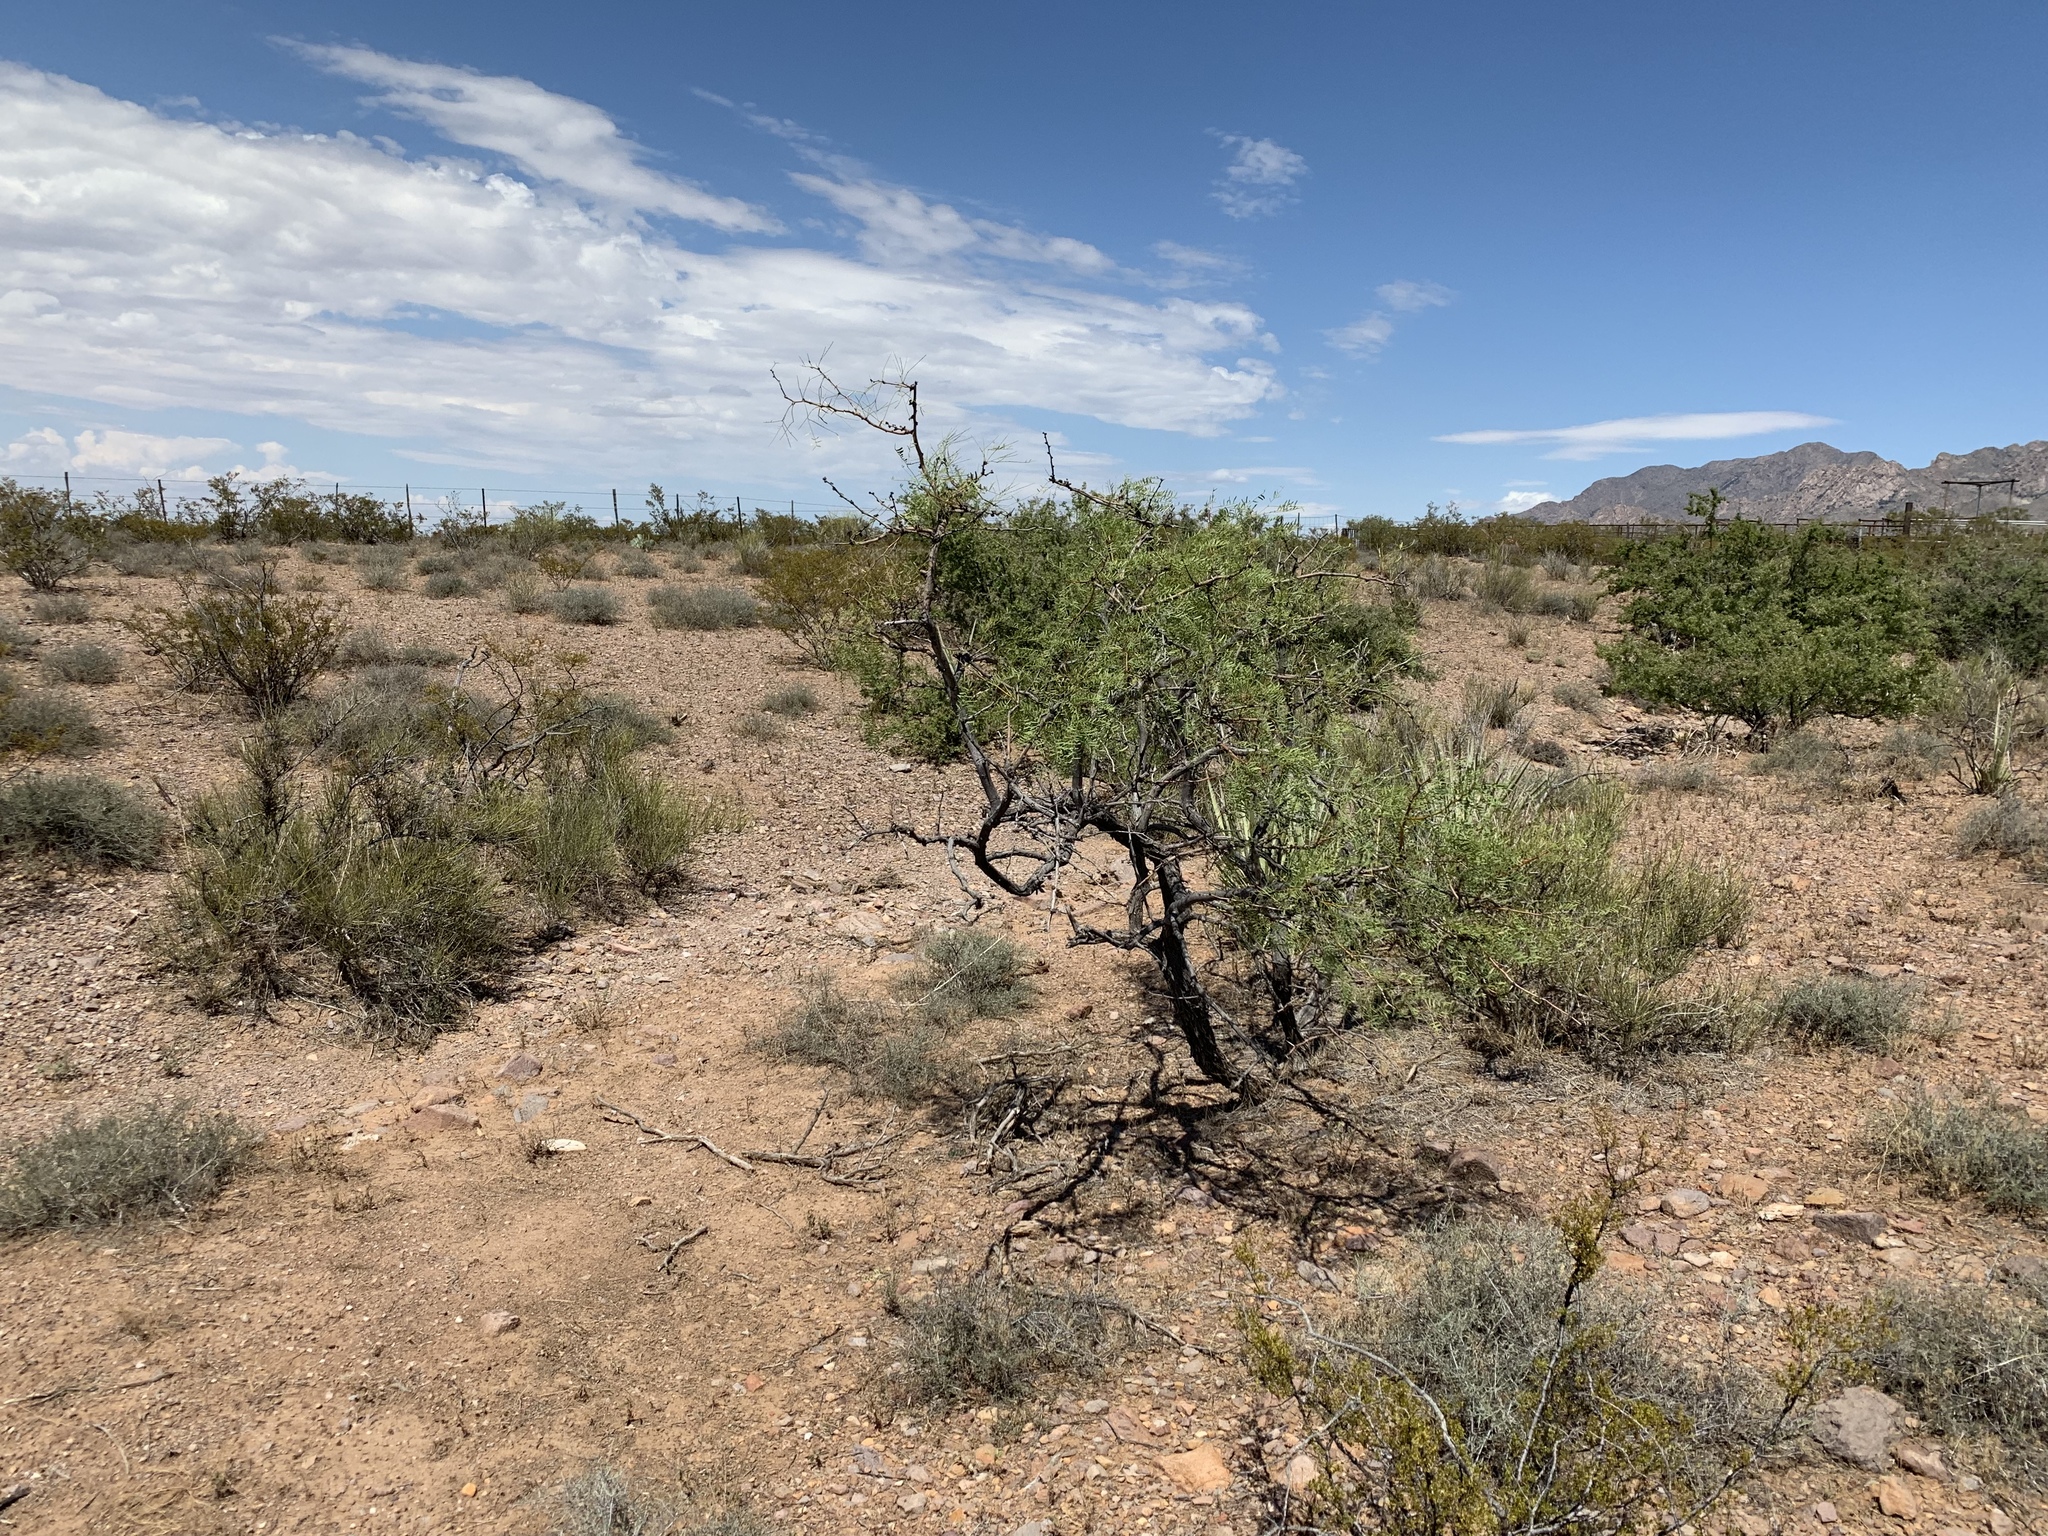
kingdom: Plantae
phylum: Tracheophyta
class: Magnoliopsida
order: Fabales
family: Fabaceae
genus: Prosopis
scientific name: Prosopis glandulosa
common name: Honey mesquite
